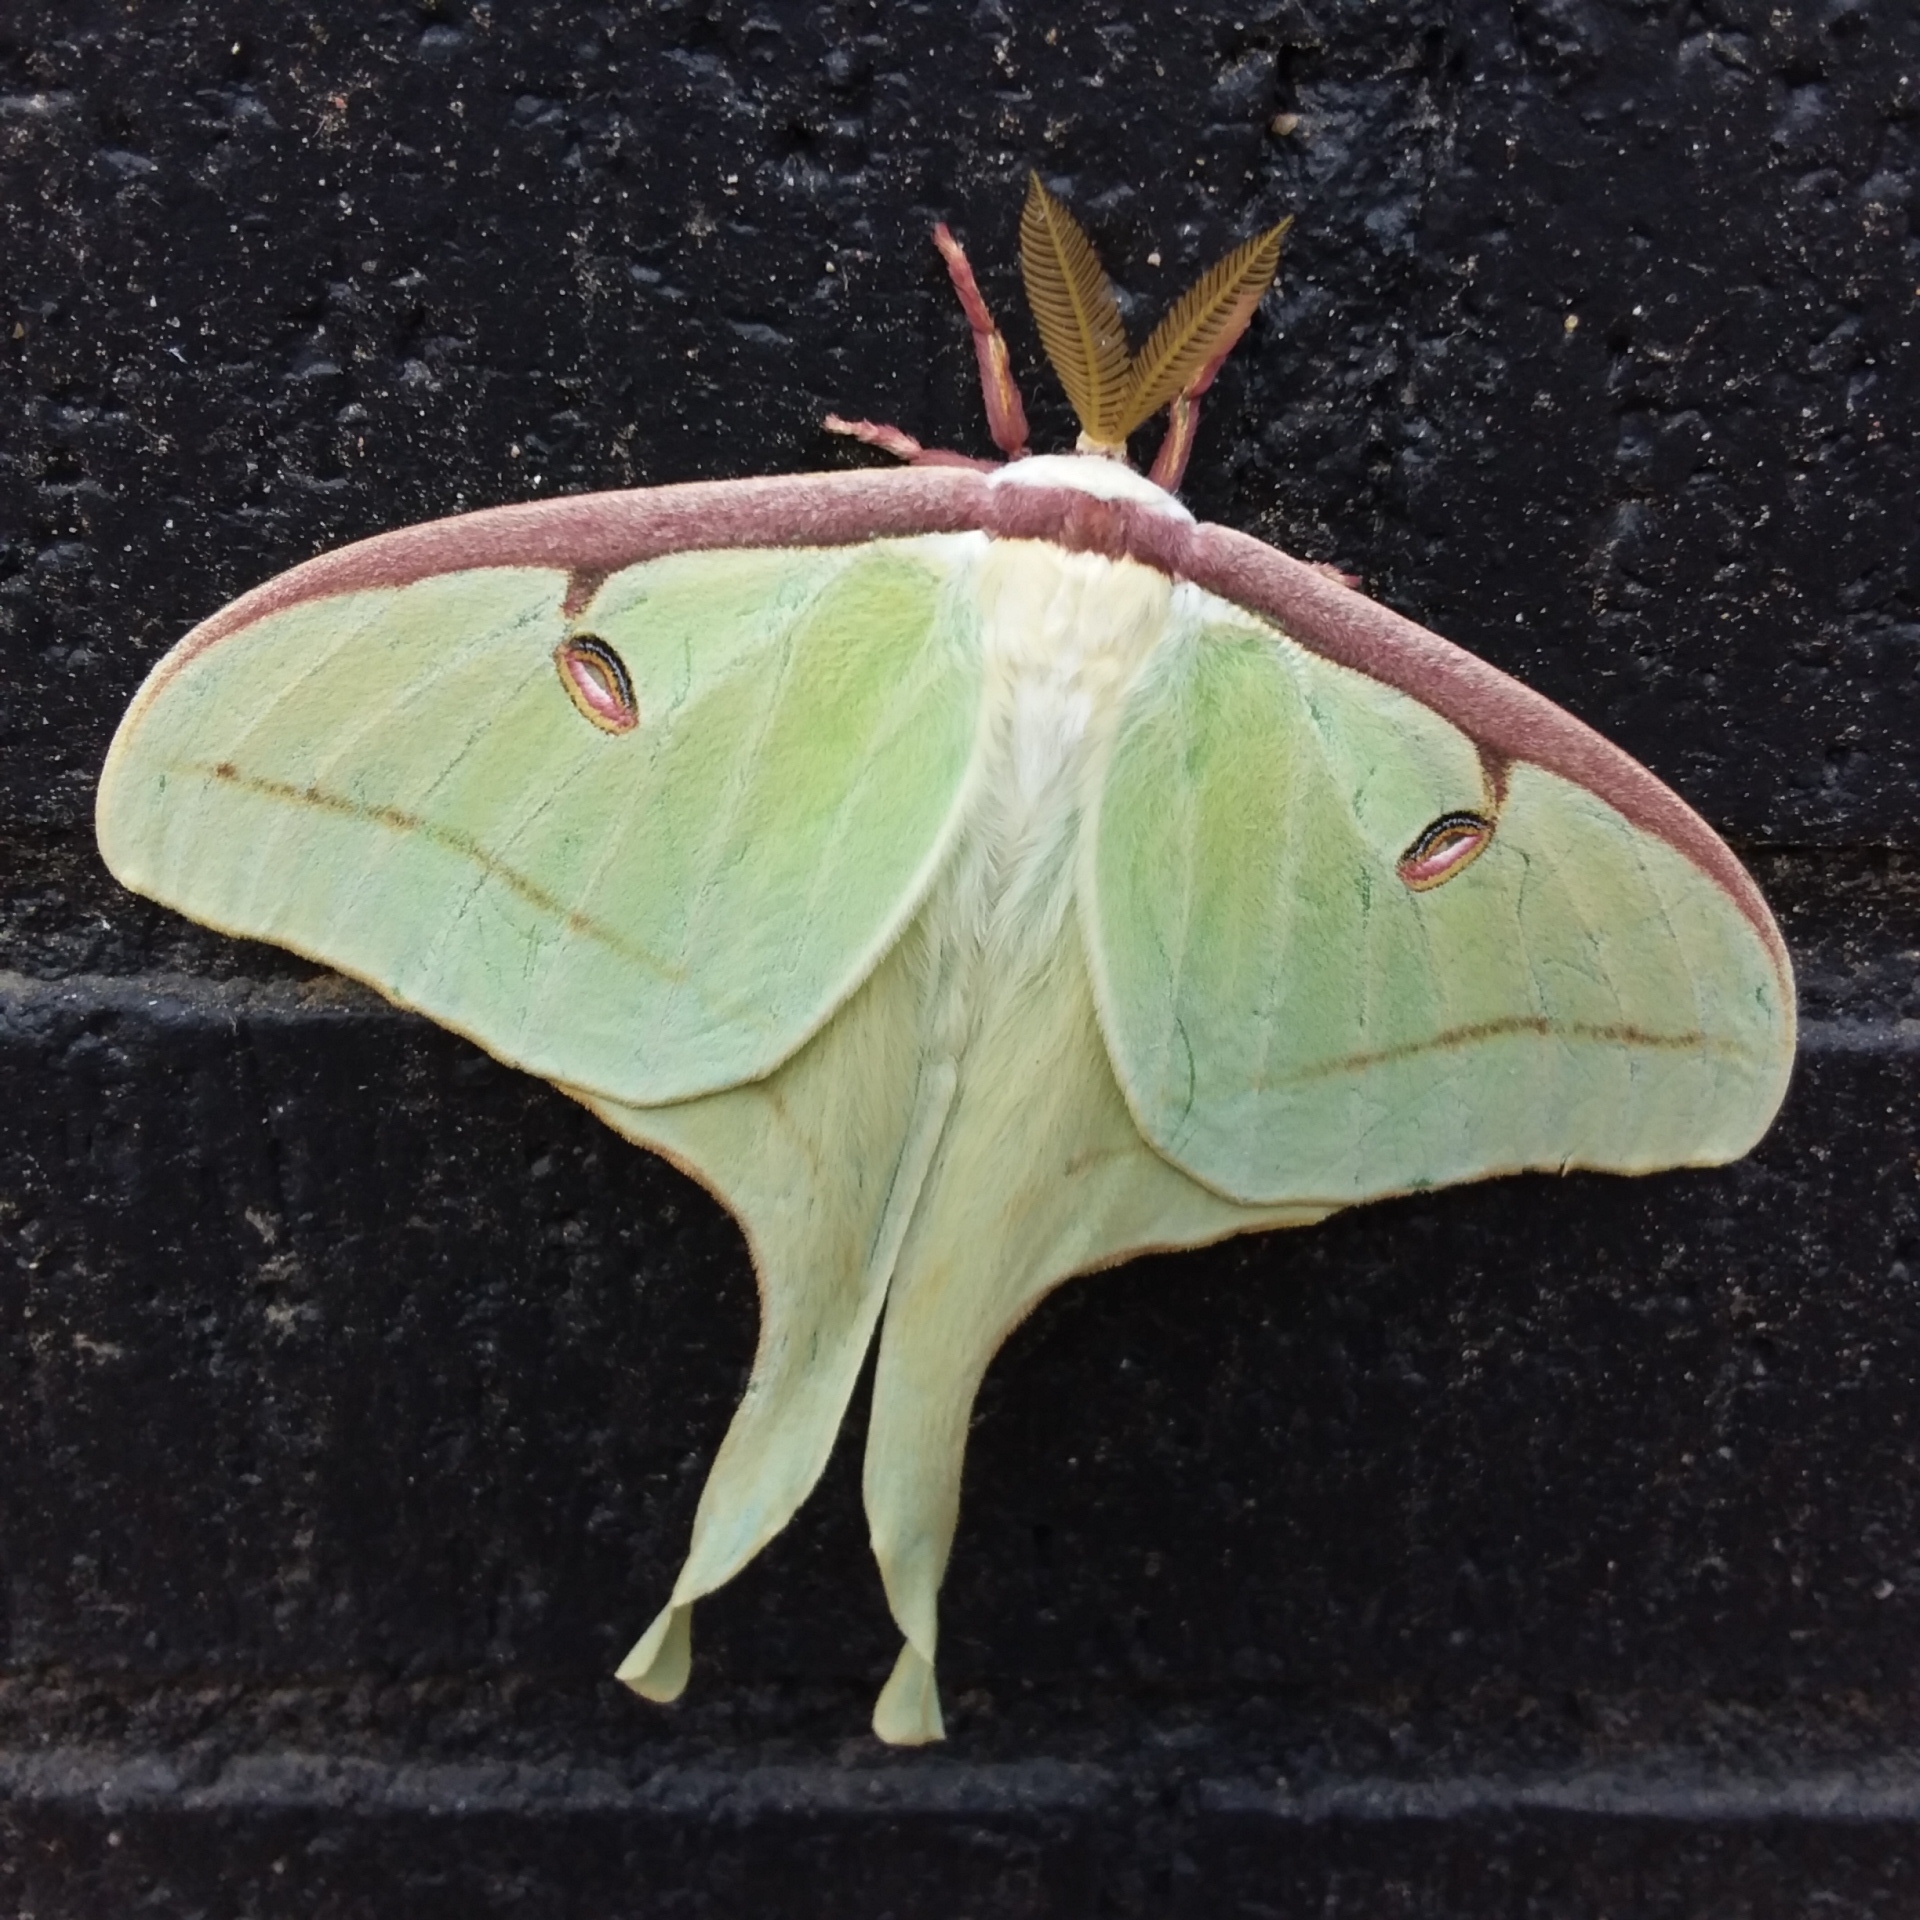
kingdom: Animalia
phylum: Arthropoda
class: Insecta
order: Lepidoptera
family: Saturniidae
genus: Actias
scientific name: Actias luna
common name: Luna moth
